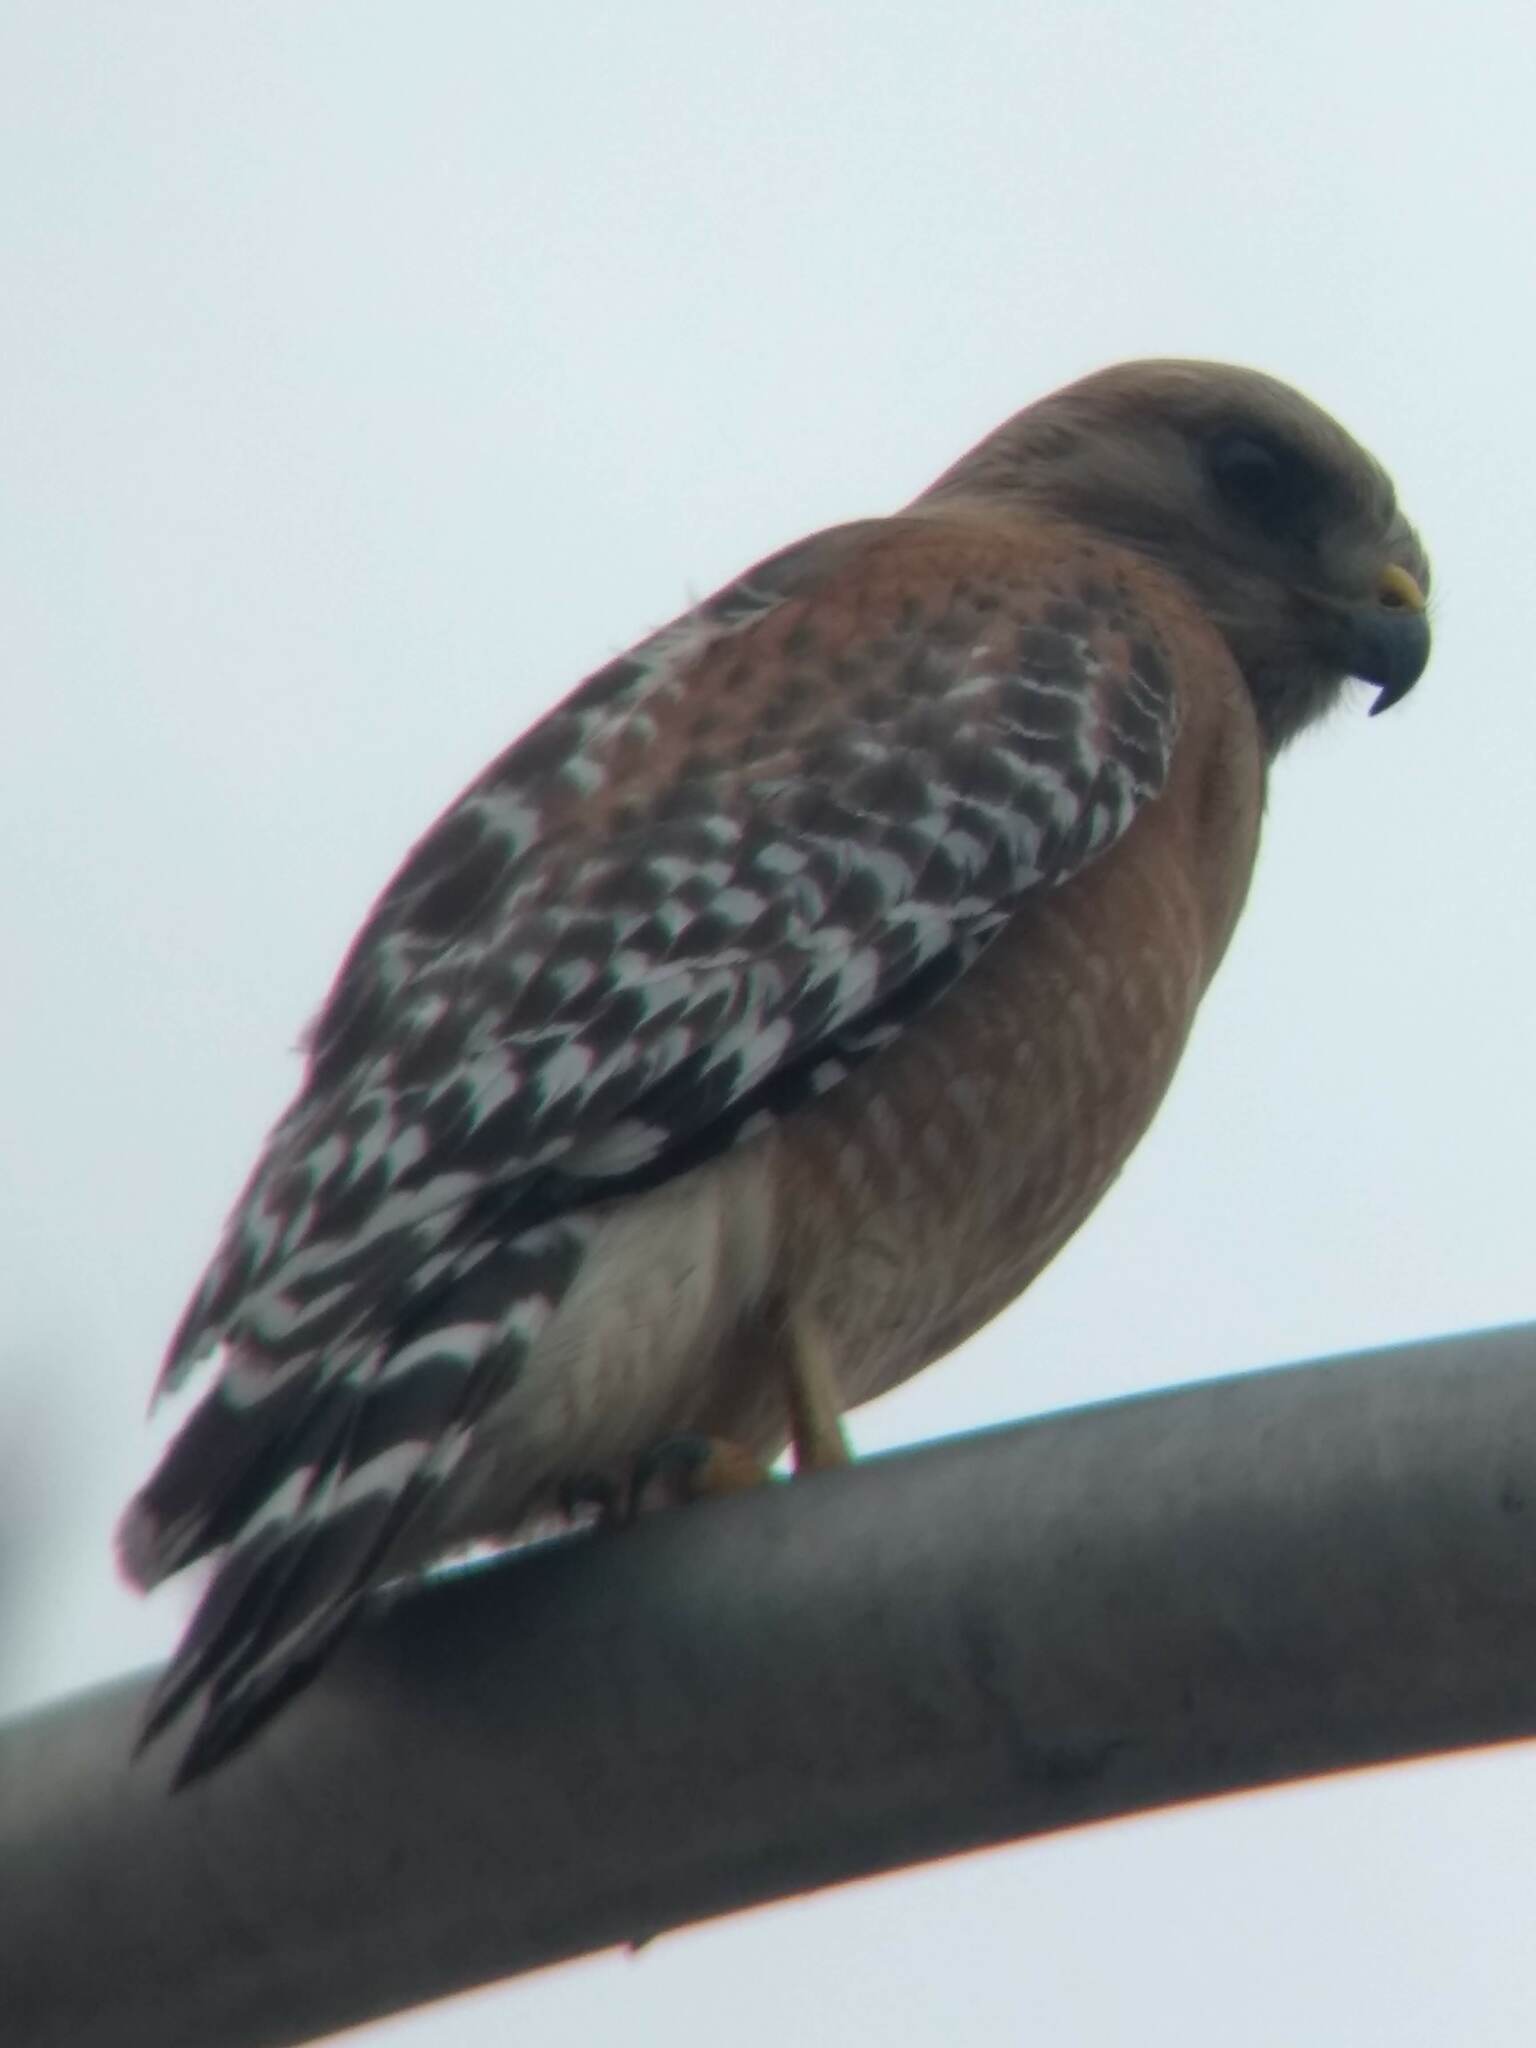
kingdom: Animalia
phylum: Chordata
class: Aves
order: Accipitriformes
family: Accipitridae
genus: Buteo
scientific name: Buteo lineatus
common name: Red-shouldered hawk
